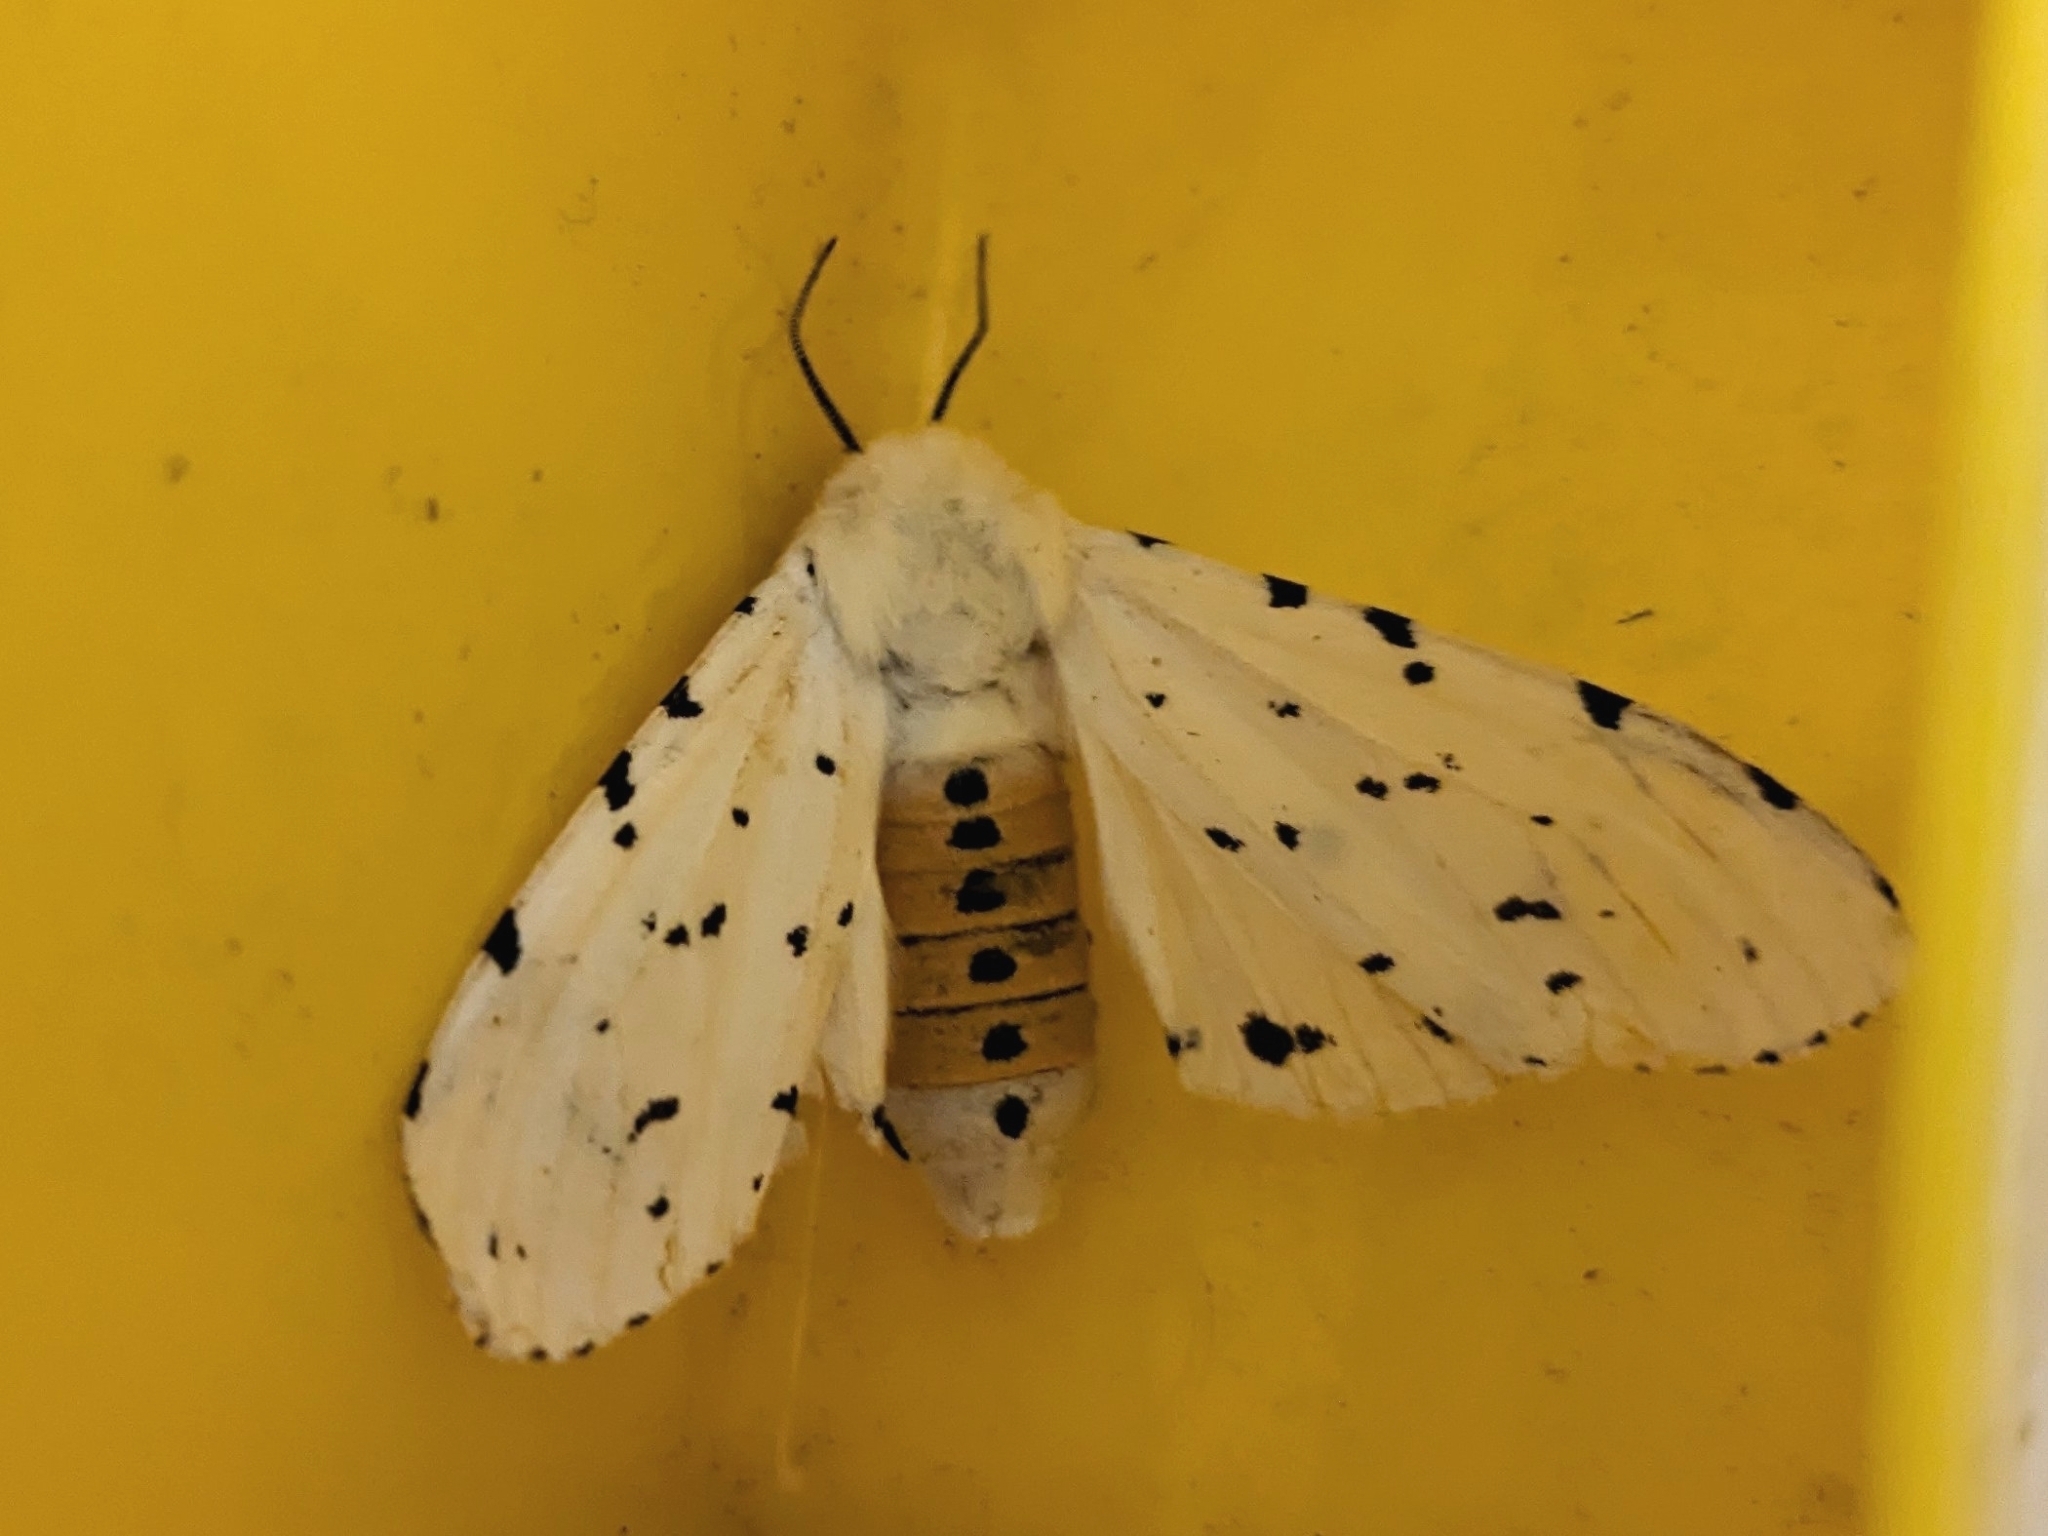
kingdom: Animalia
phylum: Arthropoda
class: Insecta
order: Lepidoptera
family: Erebidae
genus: Estigmene
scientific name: Estigmene acrea
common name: Salt marsh moth
